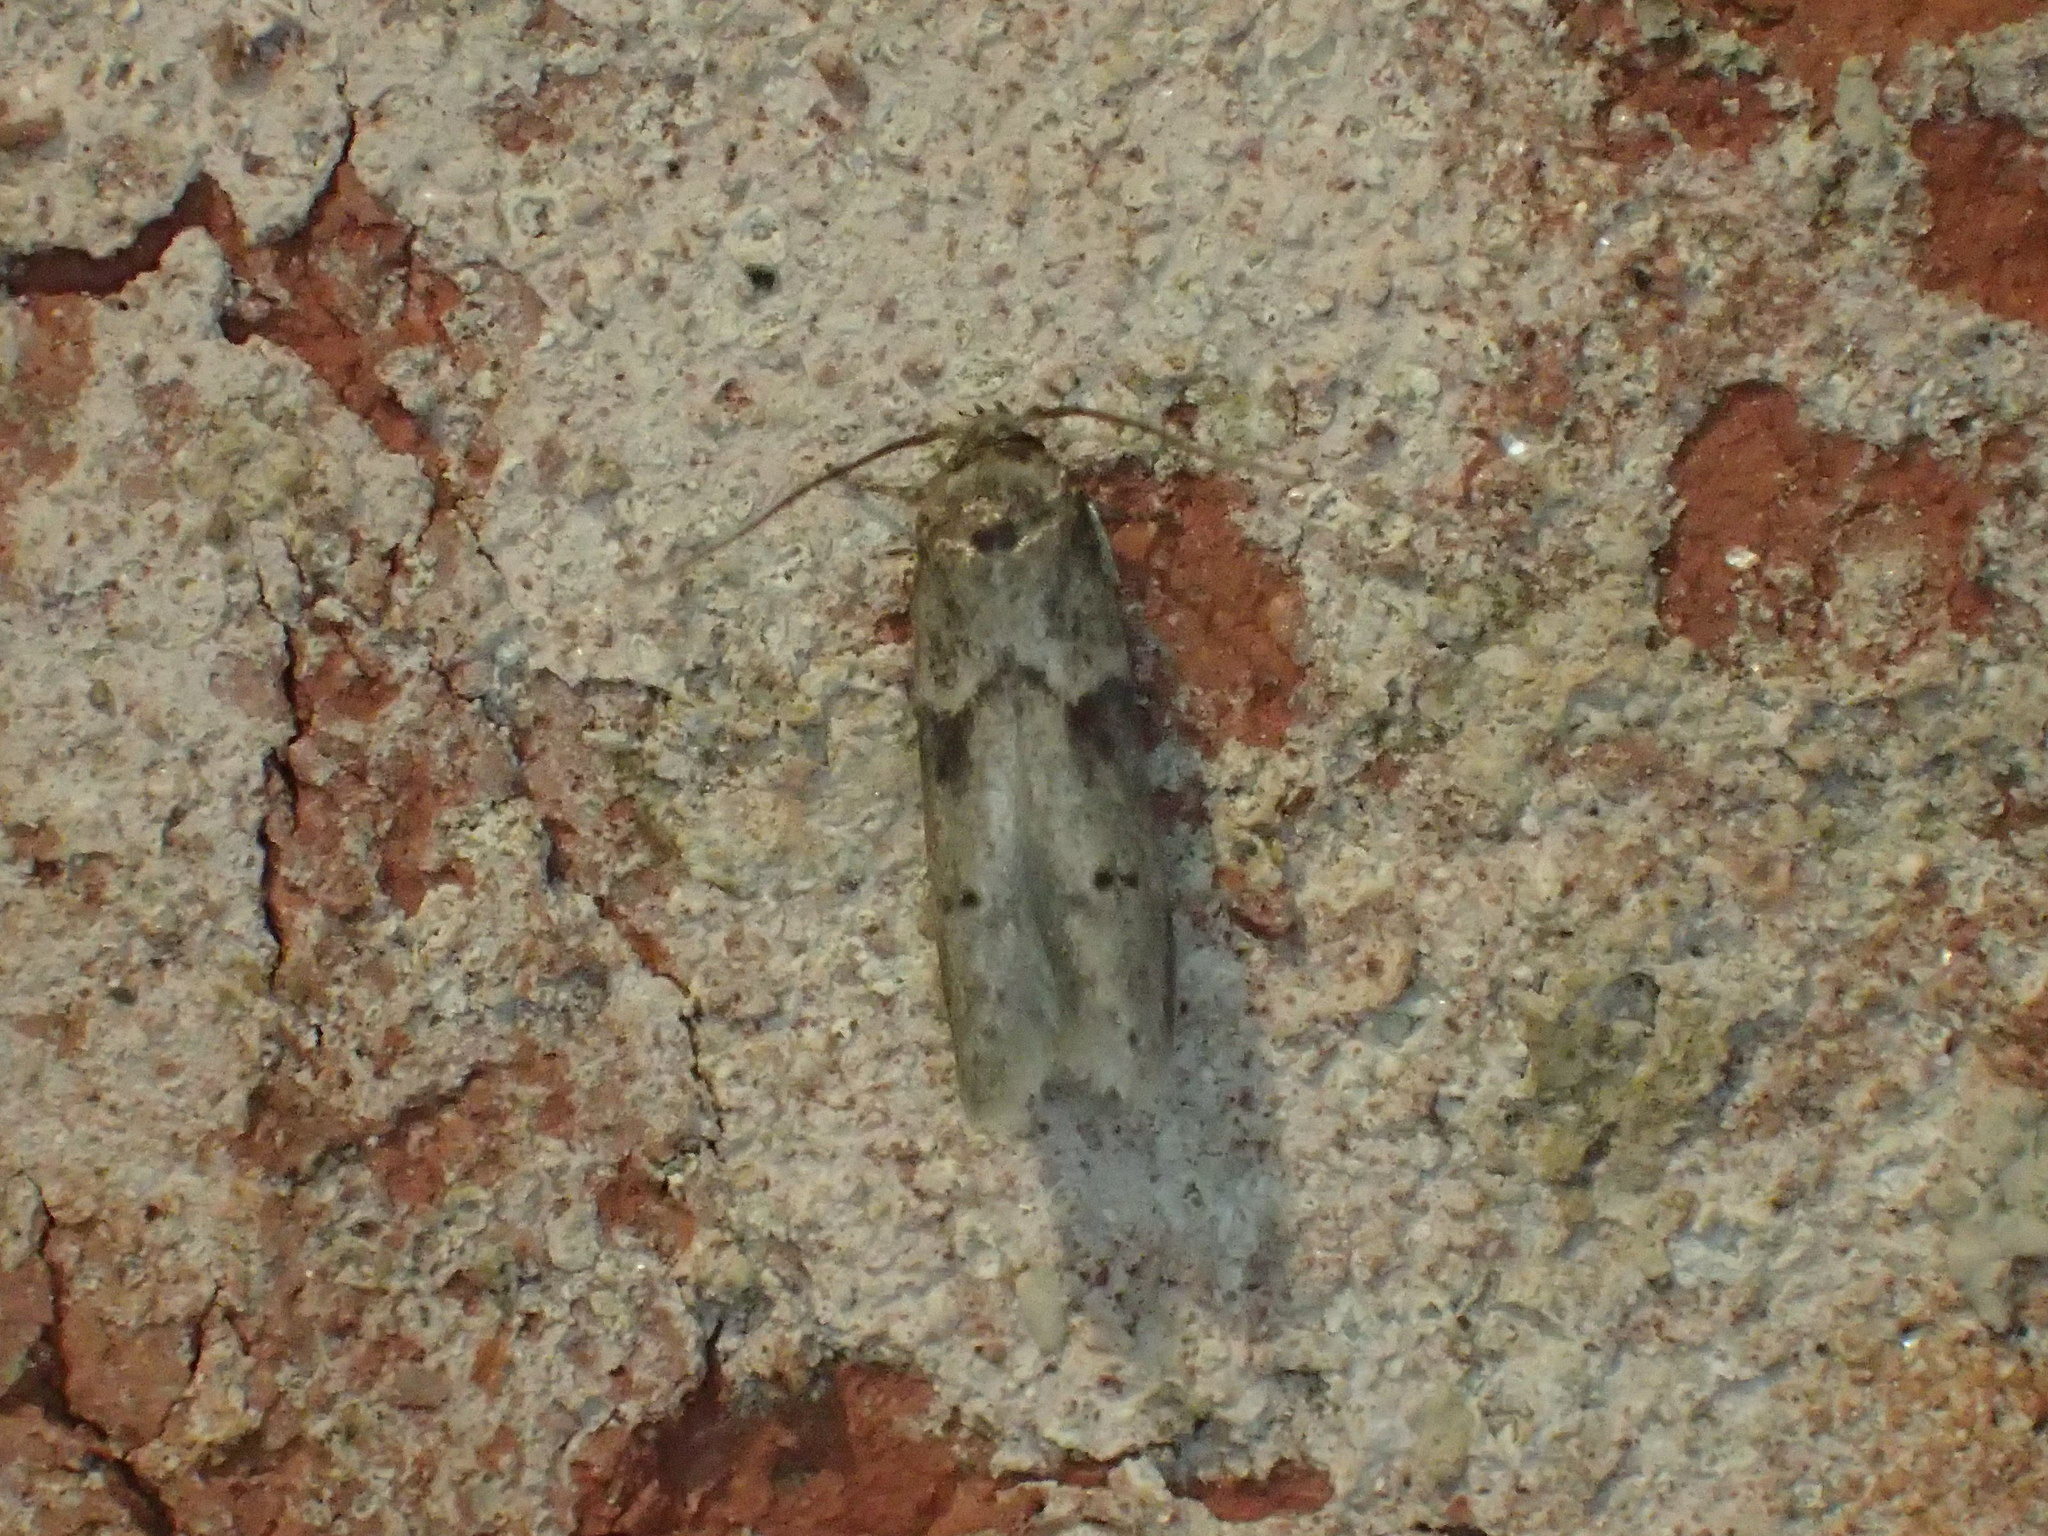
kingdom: Animalia
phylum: Arthropoda
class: Insecta
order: Lepidoptera
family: Blastobasidae
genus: Blastobasis
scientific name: Blastobasis glandulella
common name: Acorn moth
